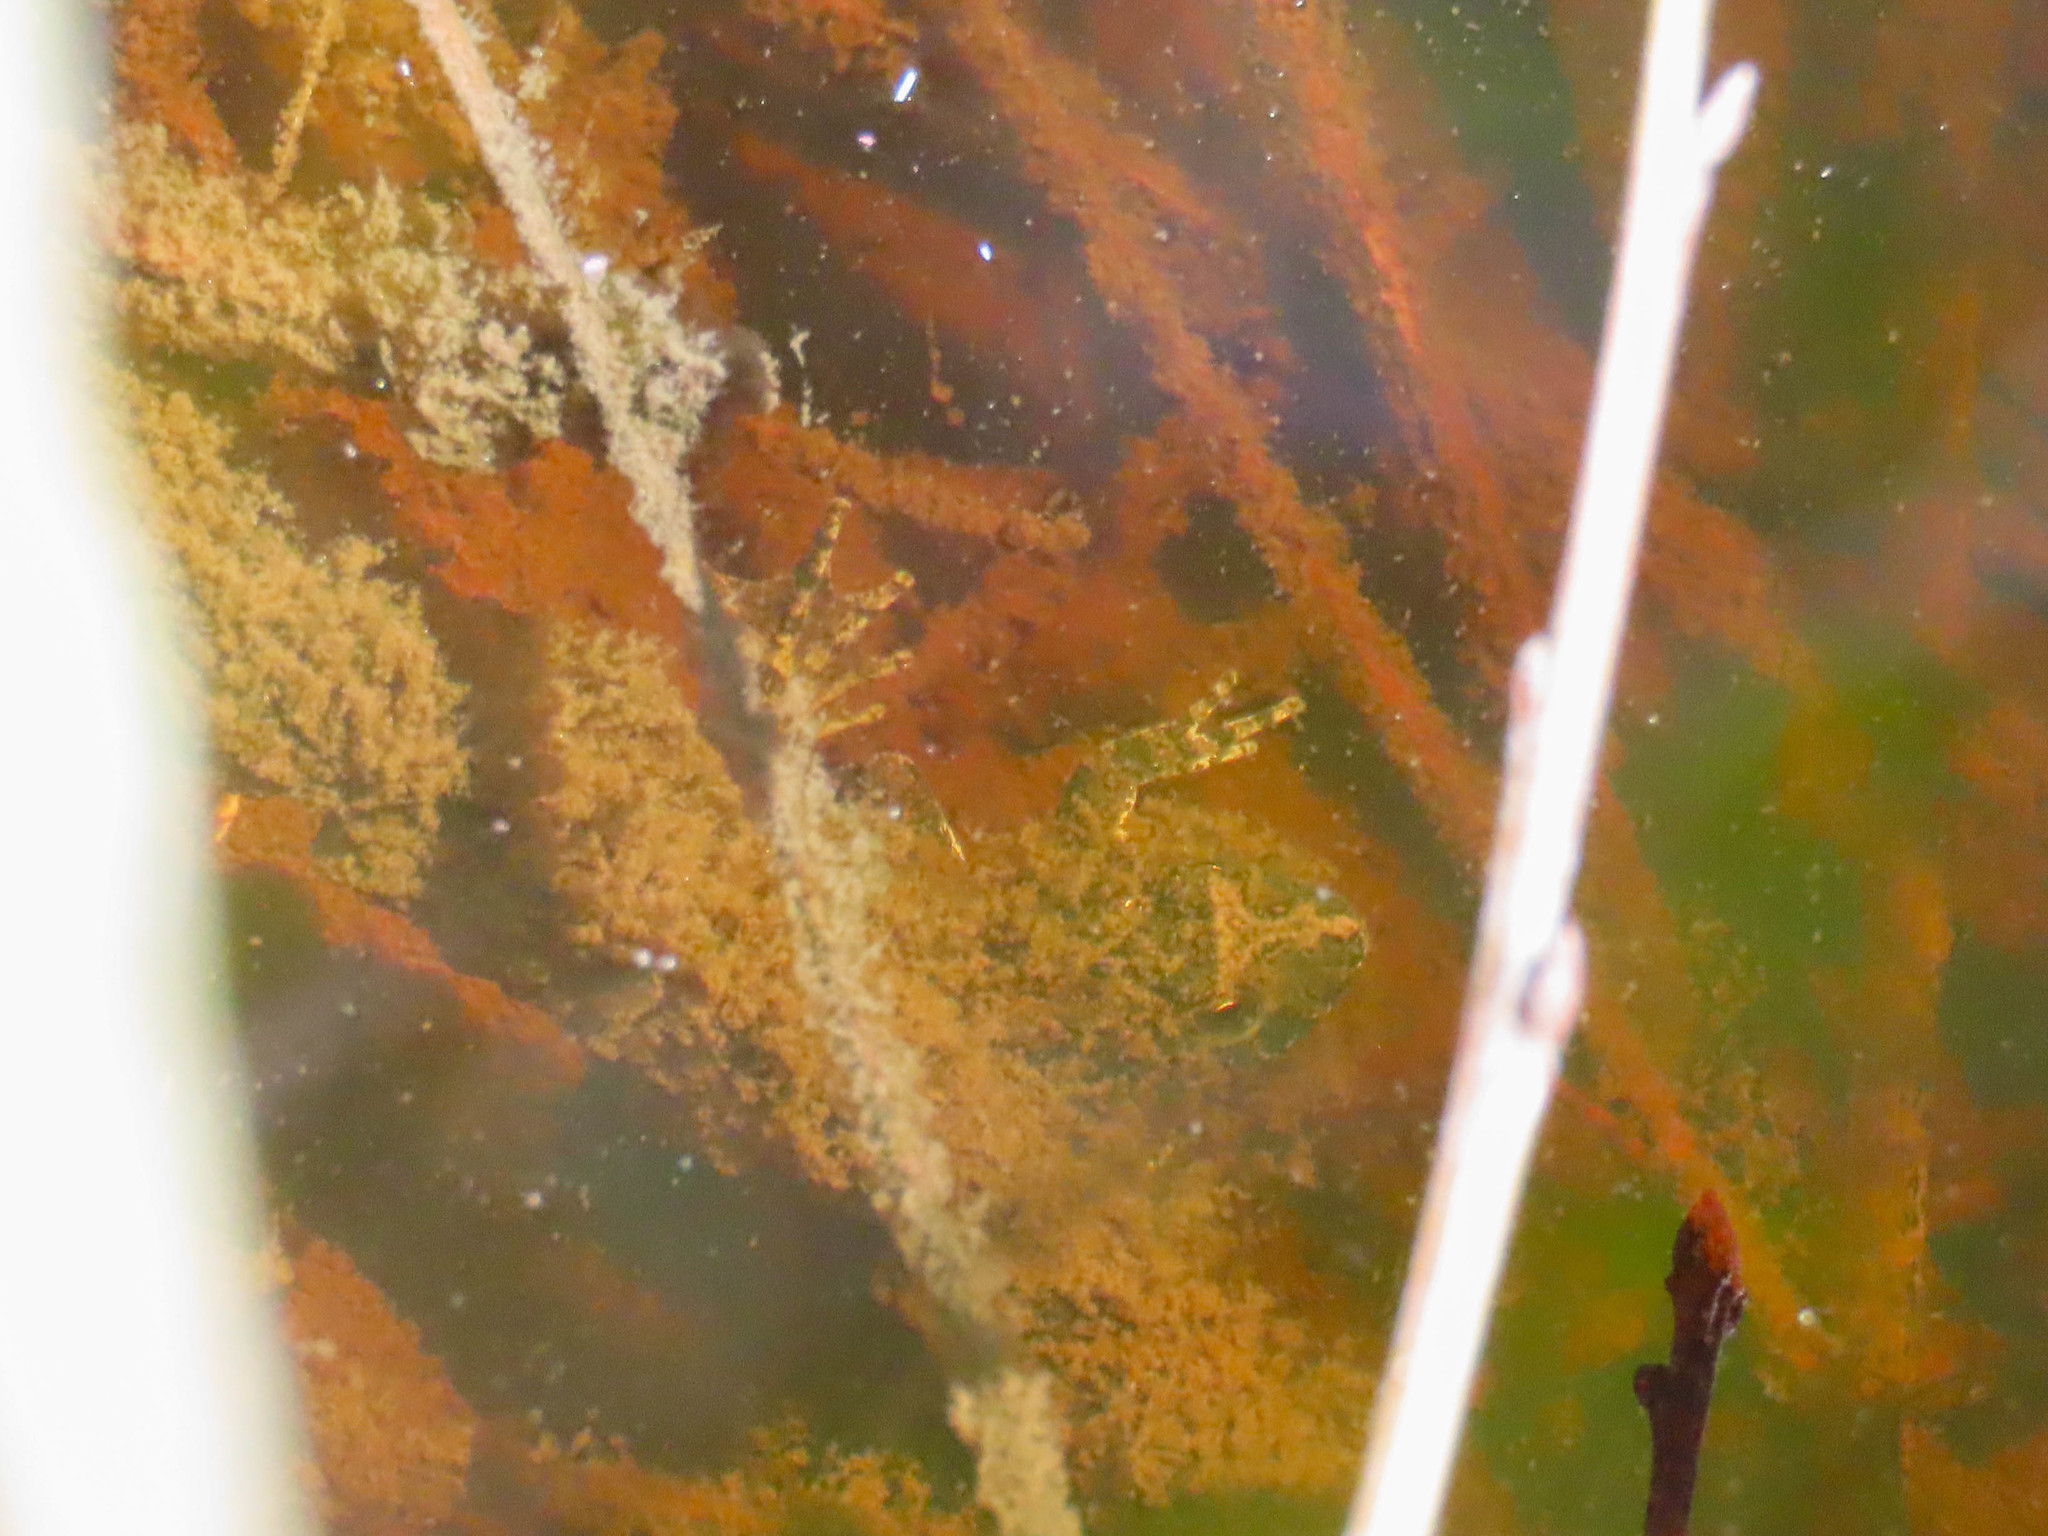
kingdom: Animalia
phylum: Chordata
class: Amphibia
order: Anura
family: Hylidae
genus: Acris
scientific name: Acris crepitans
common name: Northern cricket frog
